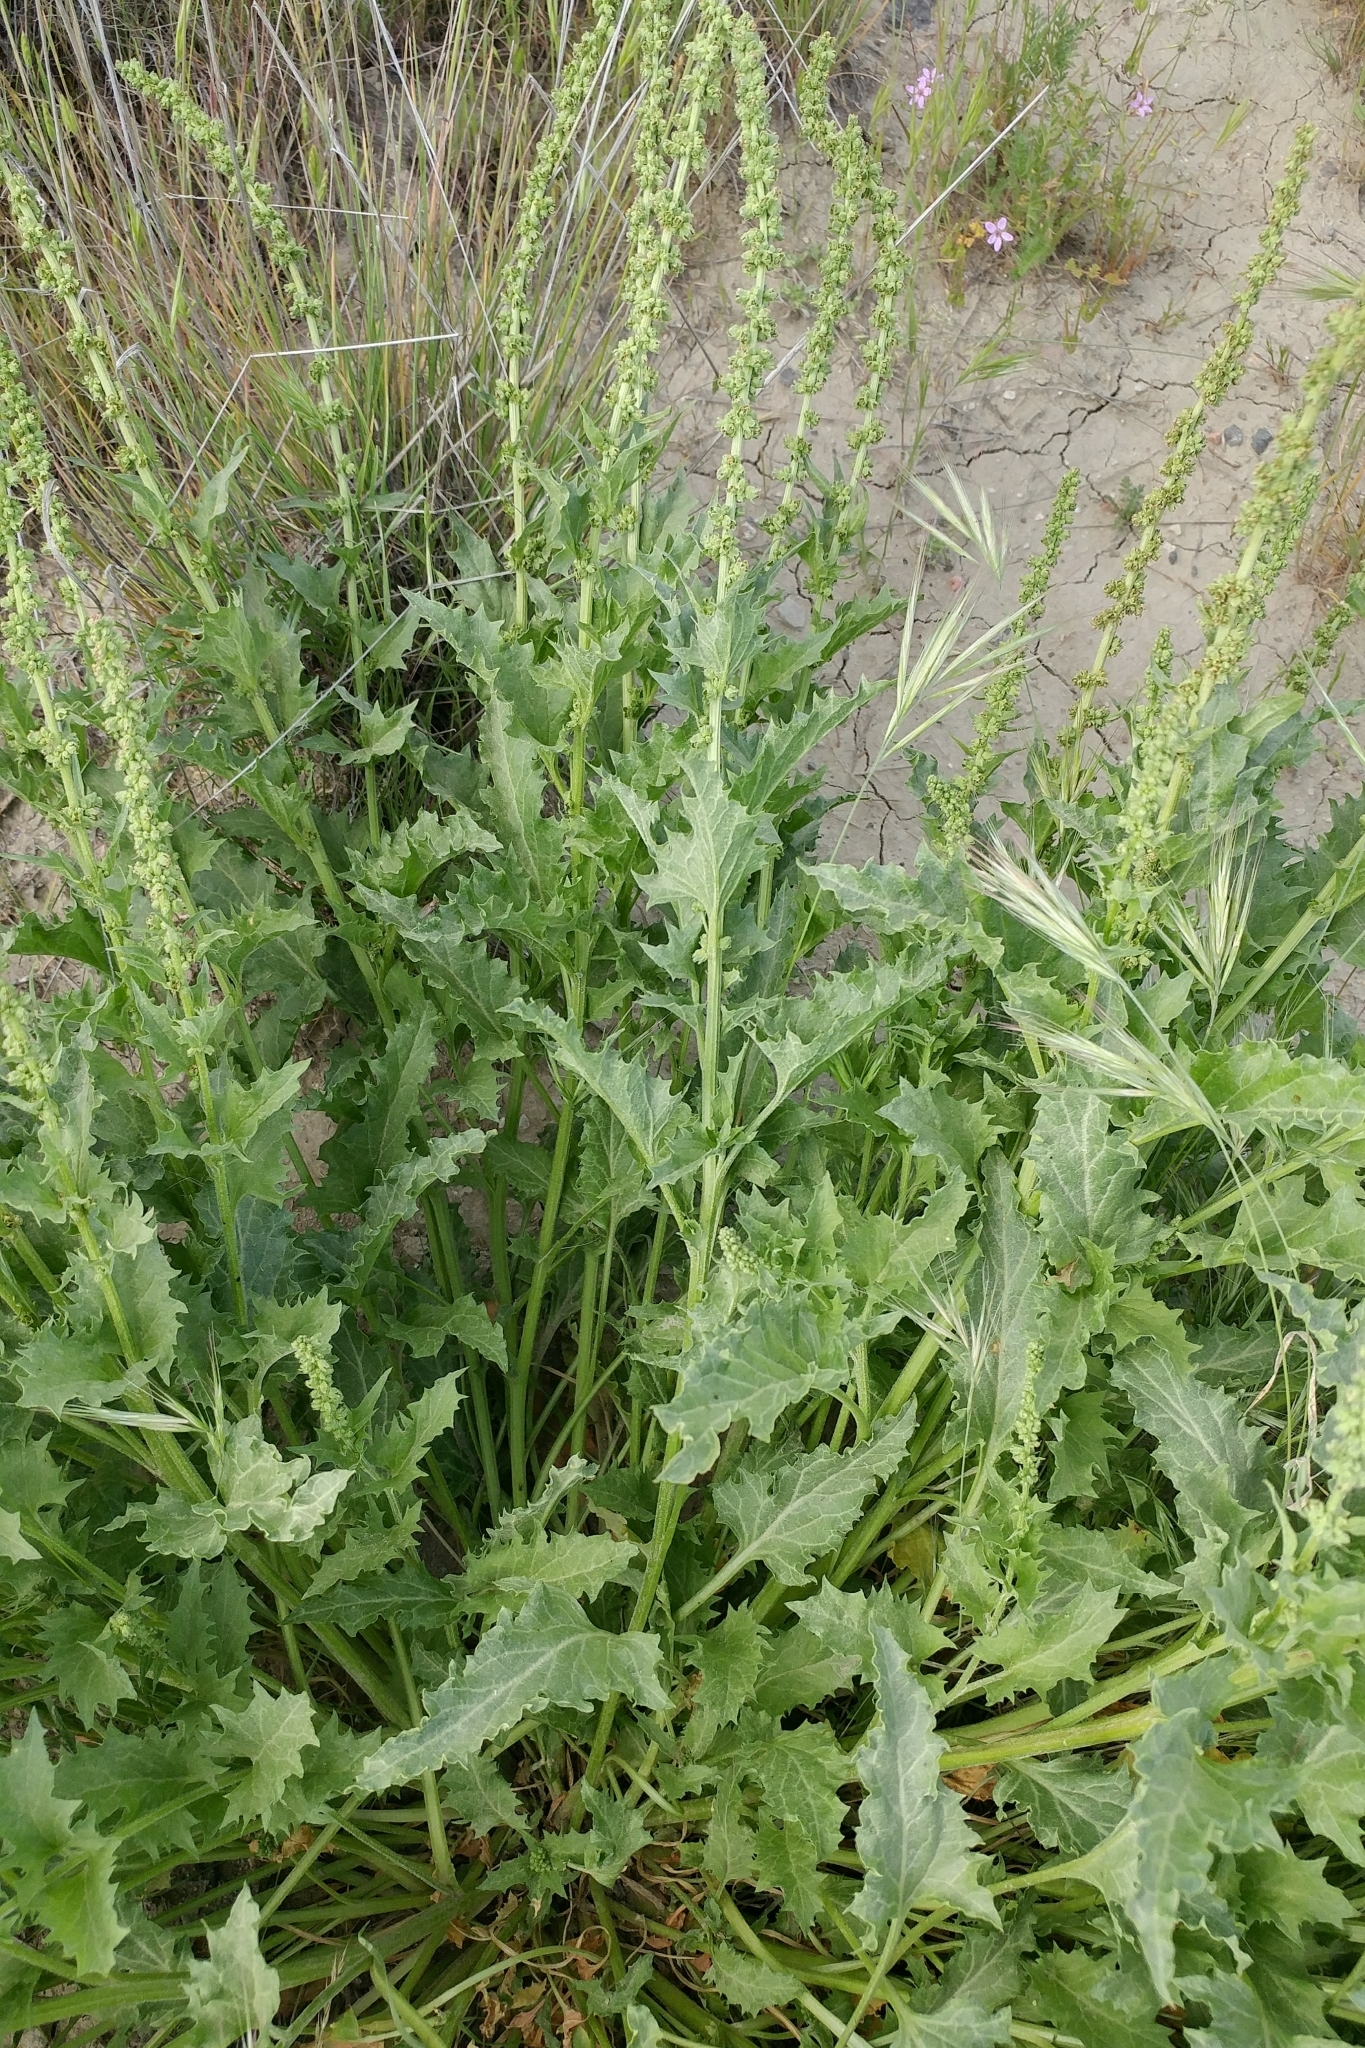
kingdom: Plantae
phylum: Tracheophyta
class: Magnoliopsida
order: Caryophyllales
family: Amaranthaceae
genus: Blitum
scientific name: Blitum californicum
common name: California goosefoot
